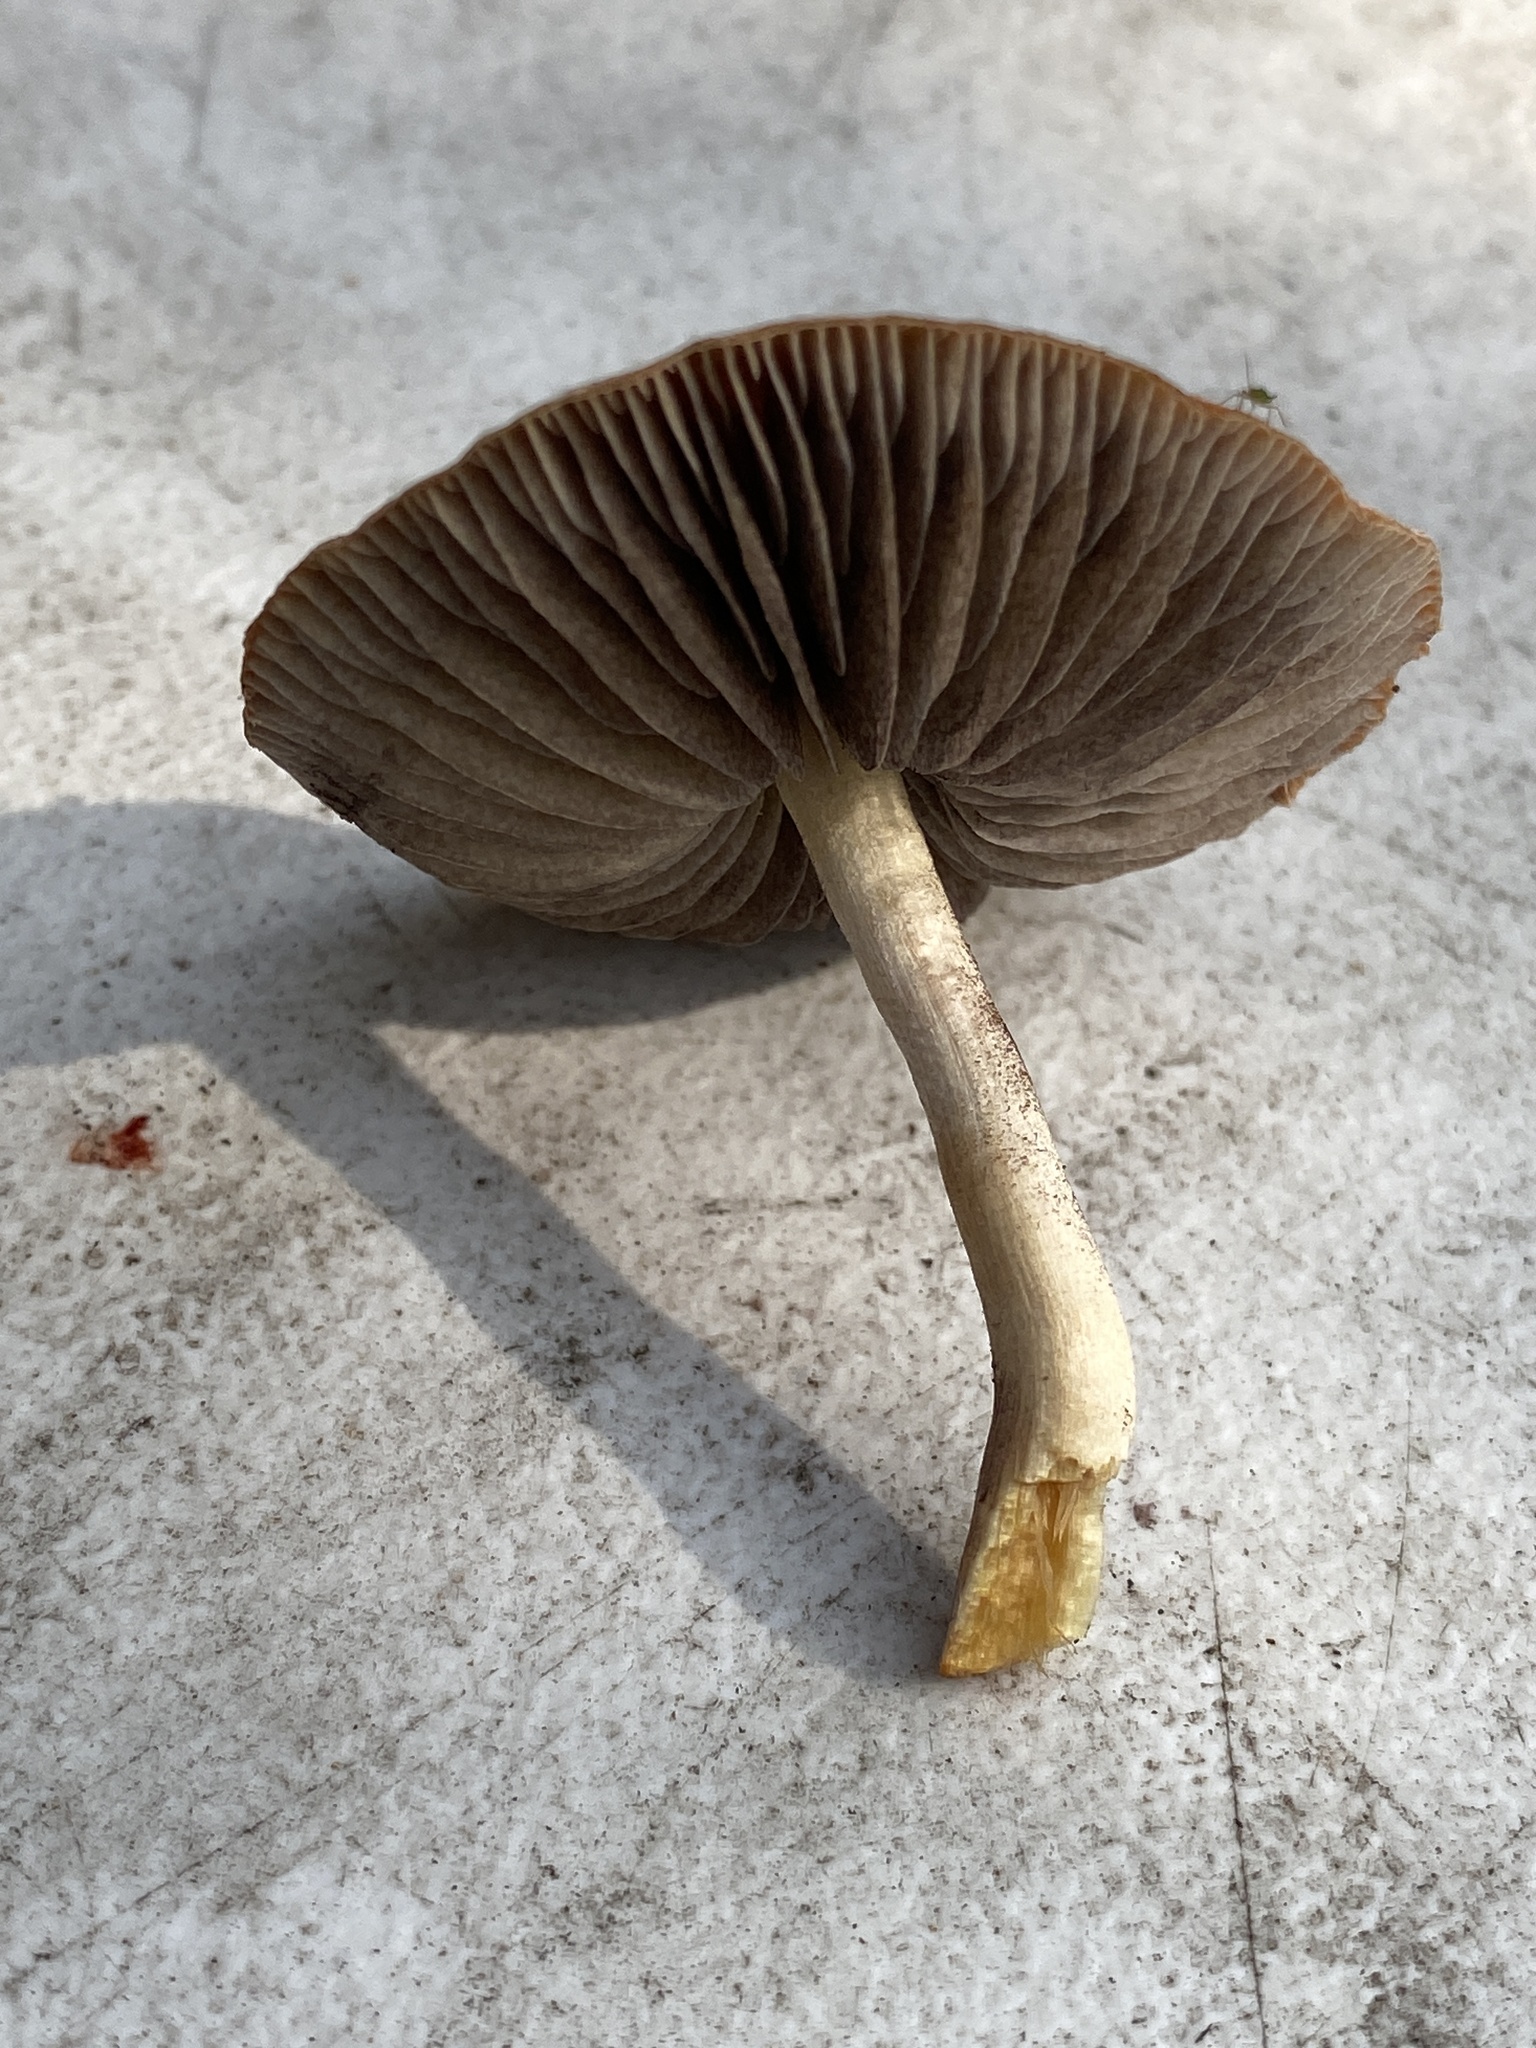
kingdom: Fungi
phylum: Basidiomycota
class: Agaricomycetes
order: Agaricales
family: Strophariaceae
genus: Leratiomyces
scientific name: Leratiomyces ceres
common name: Redlead roundhead
